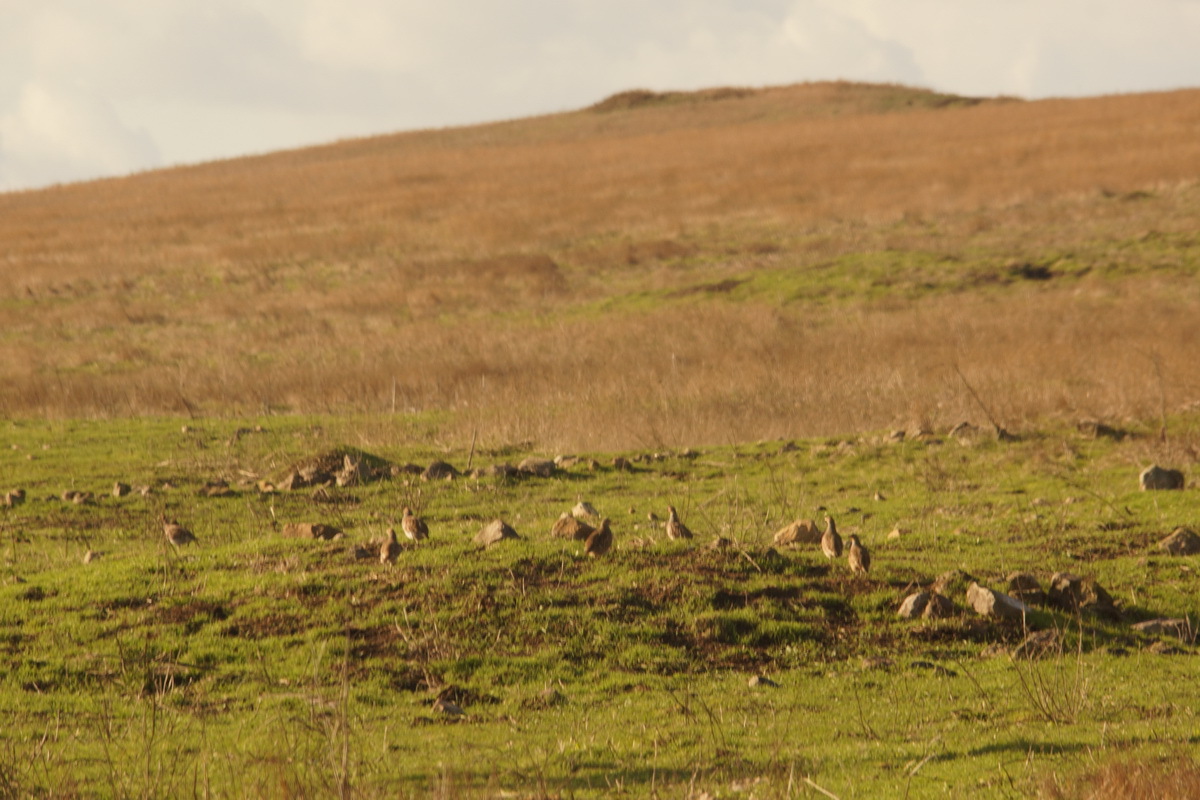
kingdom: Animalia
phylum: Chordata
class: Aves
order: Galliformes
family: Phasianidae
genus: Perdix
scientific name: Perdix perdix
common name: Grey partridge
